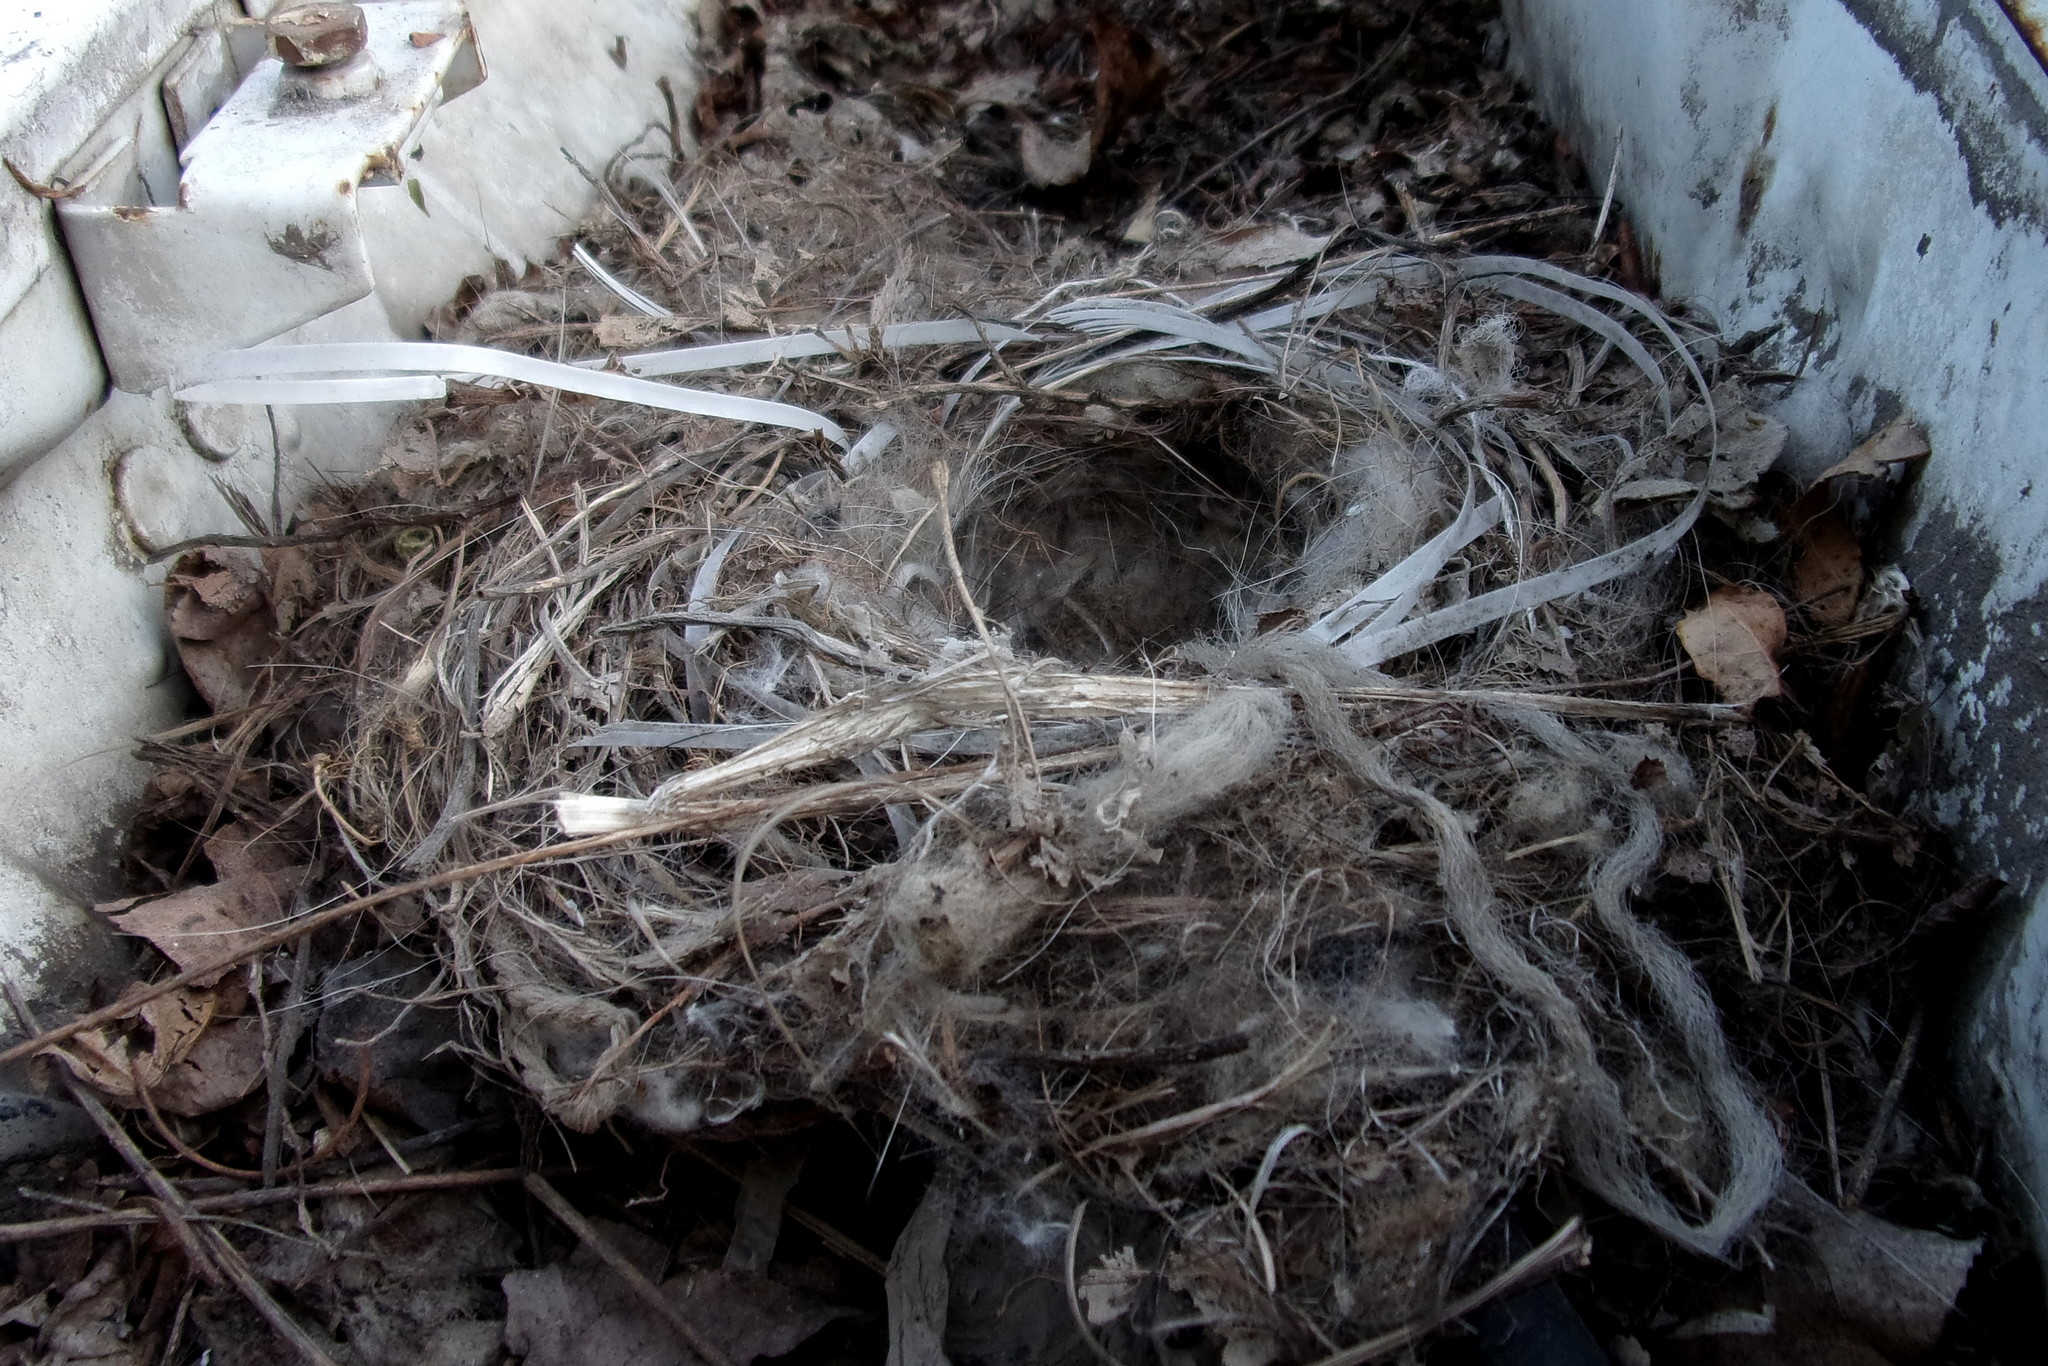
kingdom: Animalia
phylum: Chordata
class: Aves
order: Passeriformes
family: Motacillidae
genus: Motacilla
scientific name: Motacilla alba
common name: White wagtail
